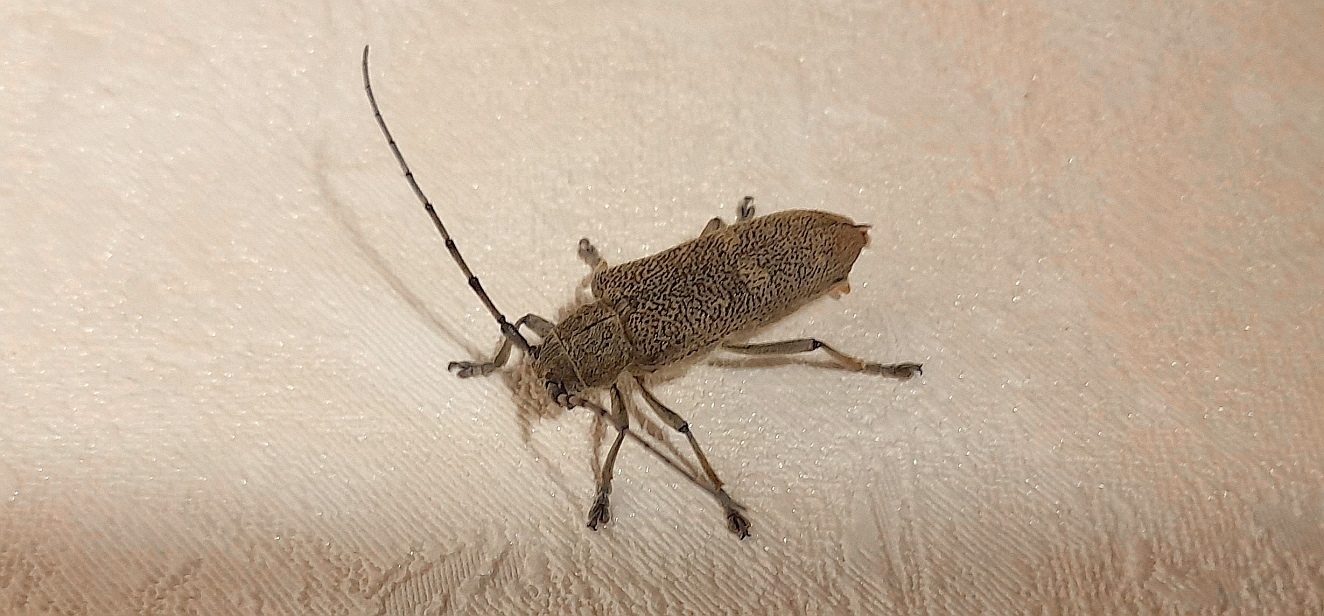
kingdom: Animalia
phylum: Arthropoda
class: Insecta
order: Coleoptera
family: Cerambycidae
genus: Saperda
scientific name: Saperda carcharias
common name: Poplar borer
